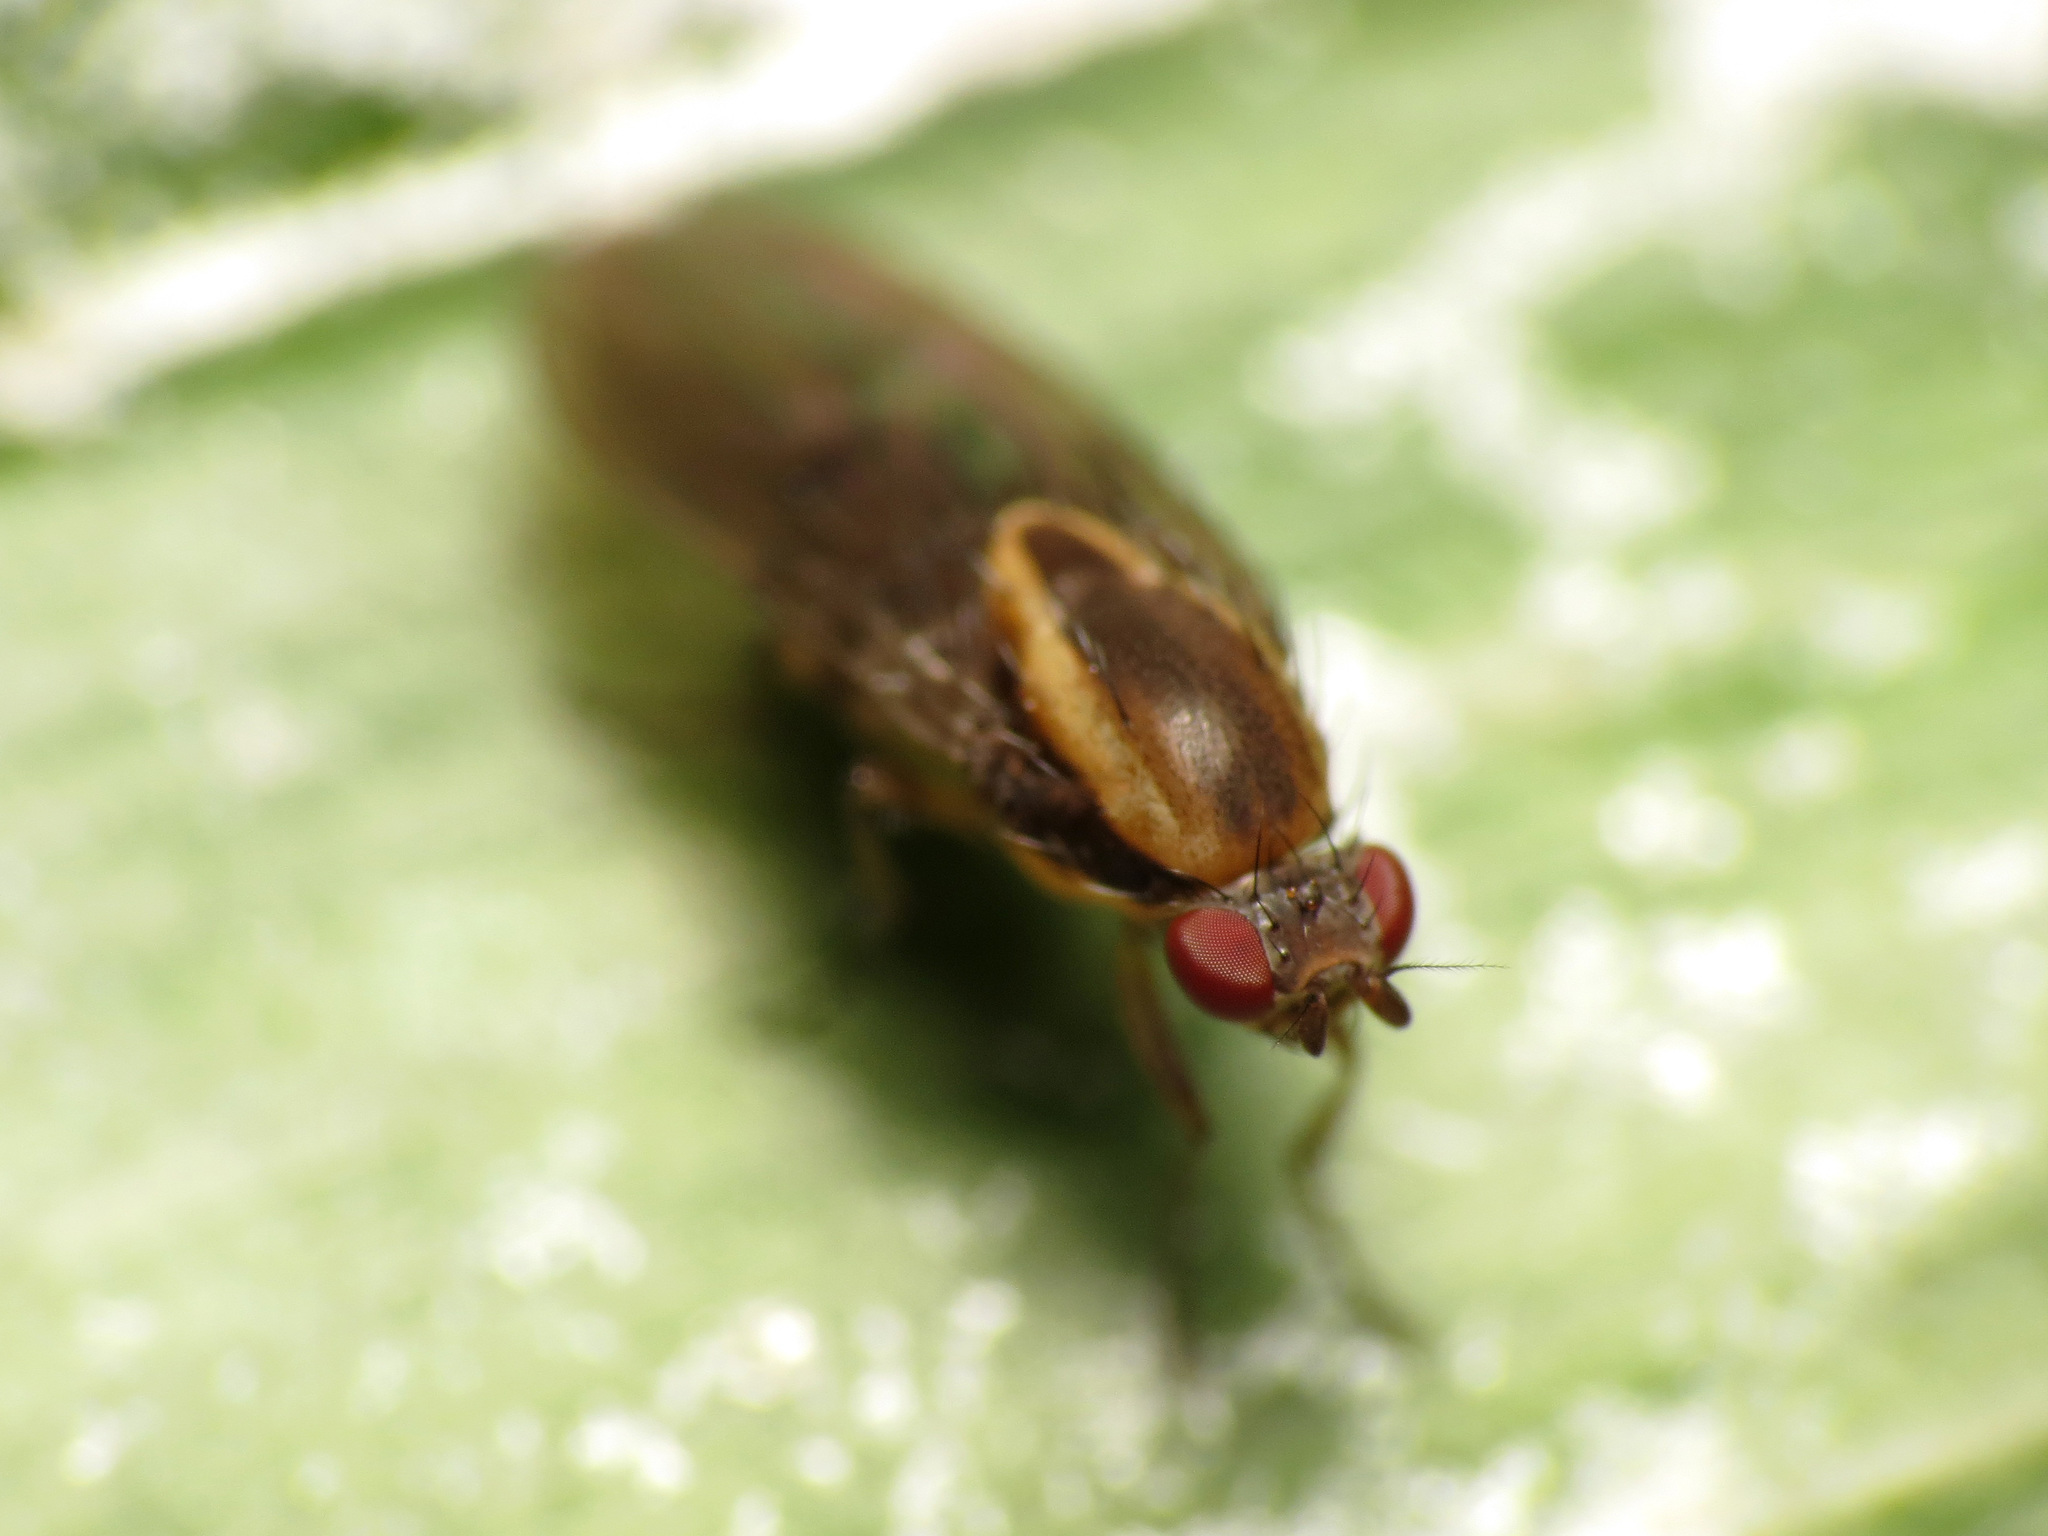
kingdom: Animalia
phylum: Arthropoda
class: Insecta
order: Diptera
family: Heleomyzidae
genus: Allophylopsis
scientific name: Allophylopsis scutellata
